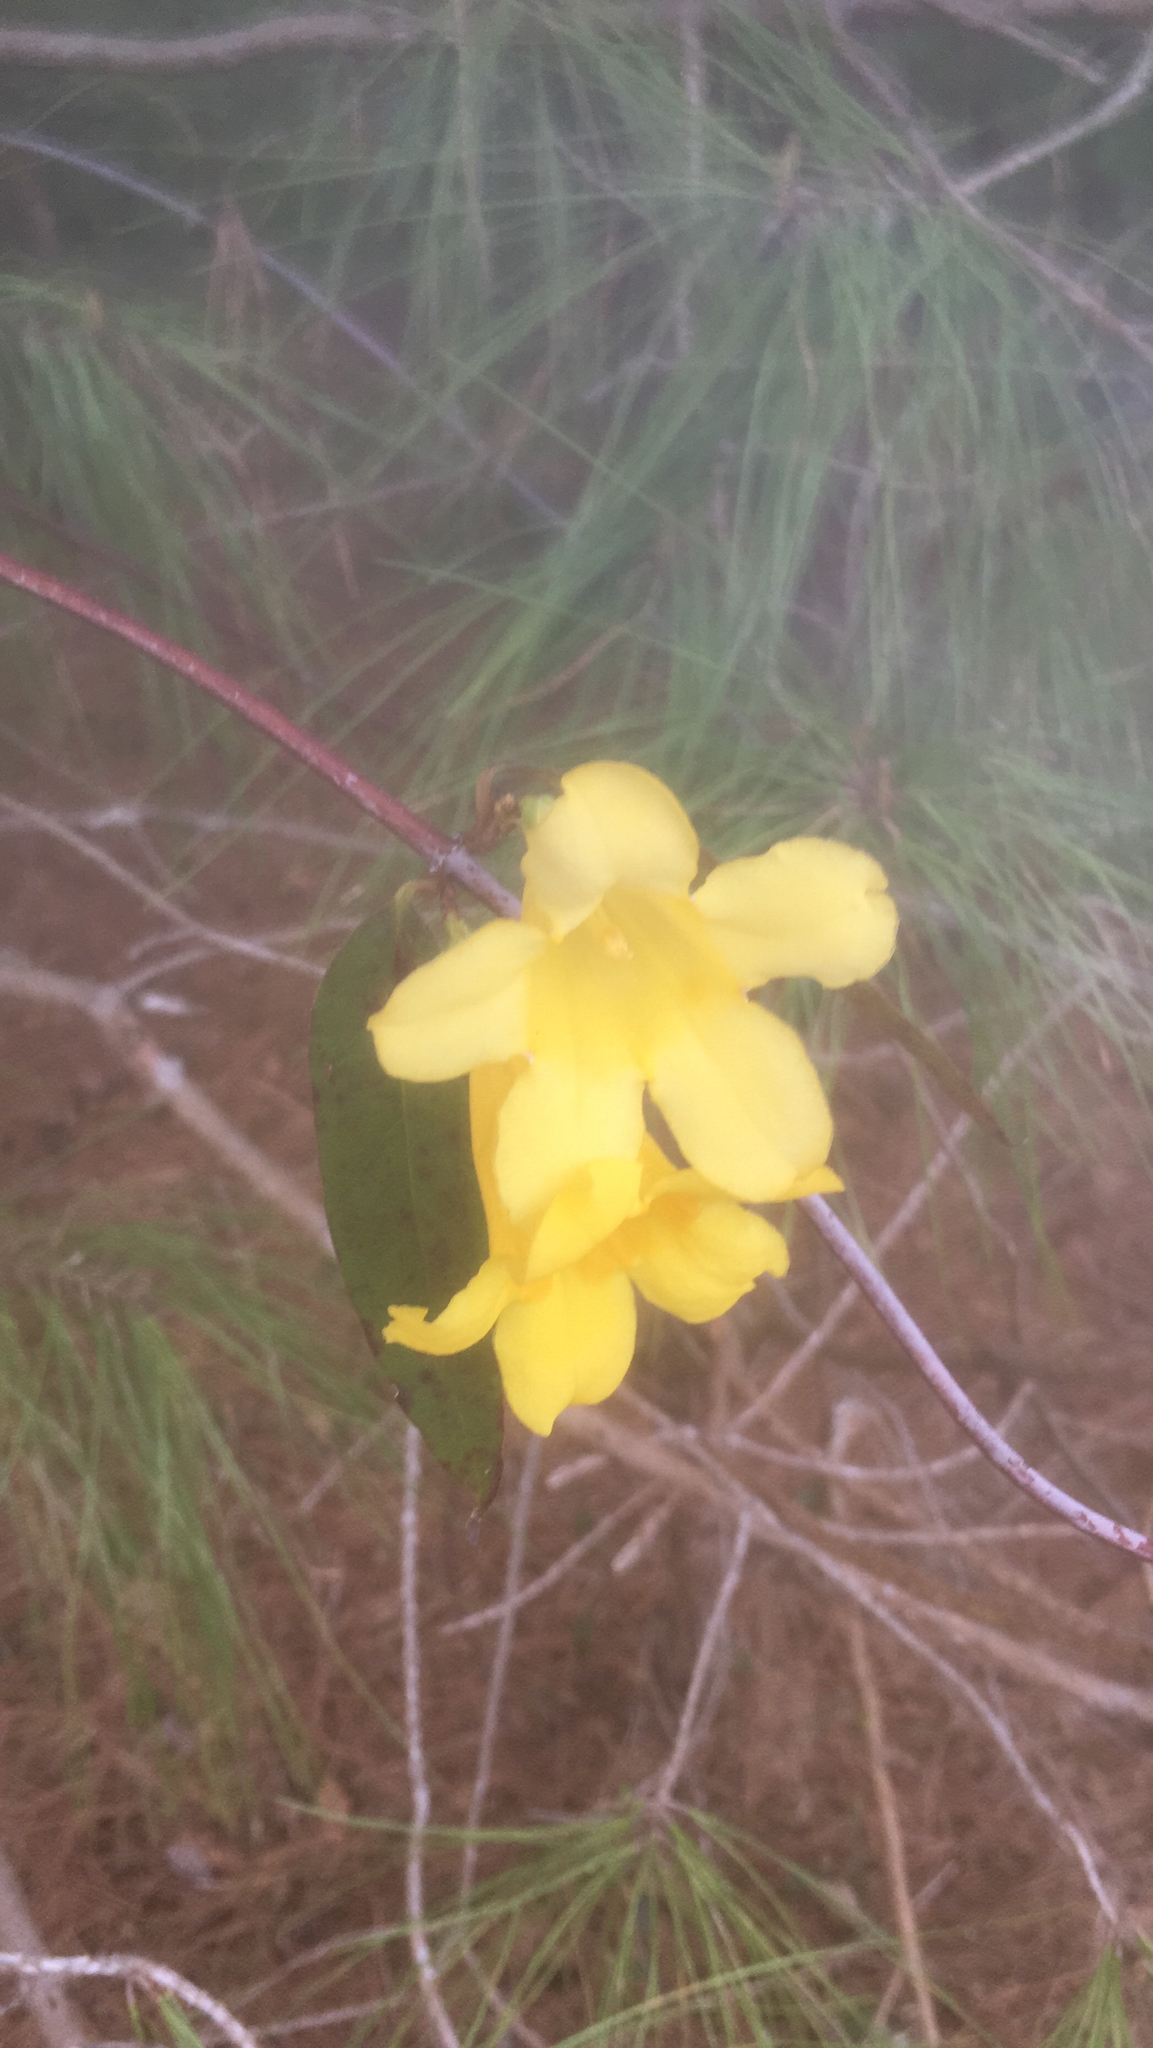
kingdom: Plantae
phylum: Tracheophyta
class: Magnoliopsida
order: Gentianales
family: Gelsemiaceae
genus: Gelsemium
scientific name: Gelsemium sempervirens
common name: Carolina-jasmine
